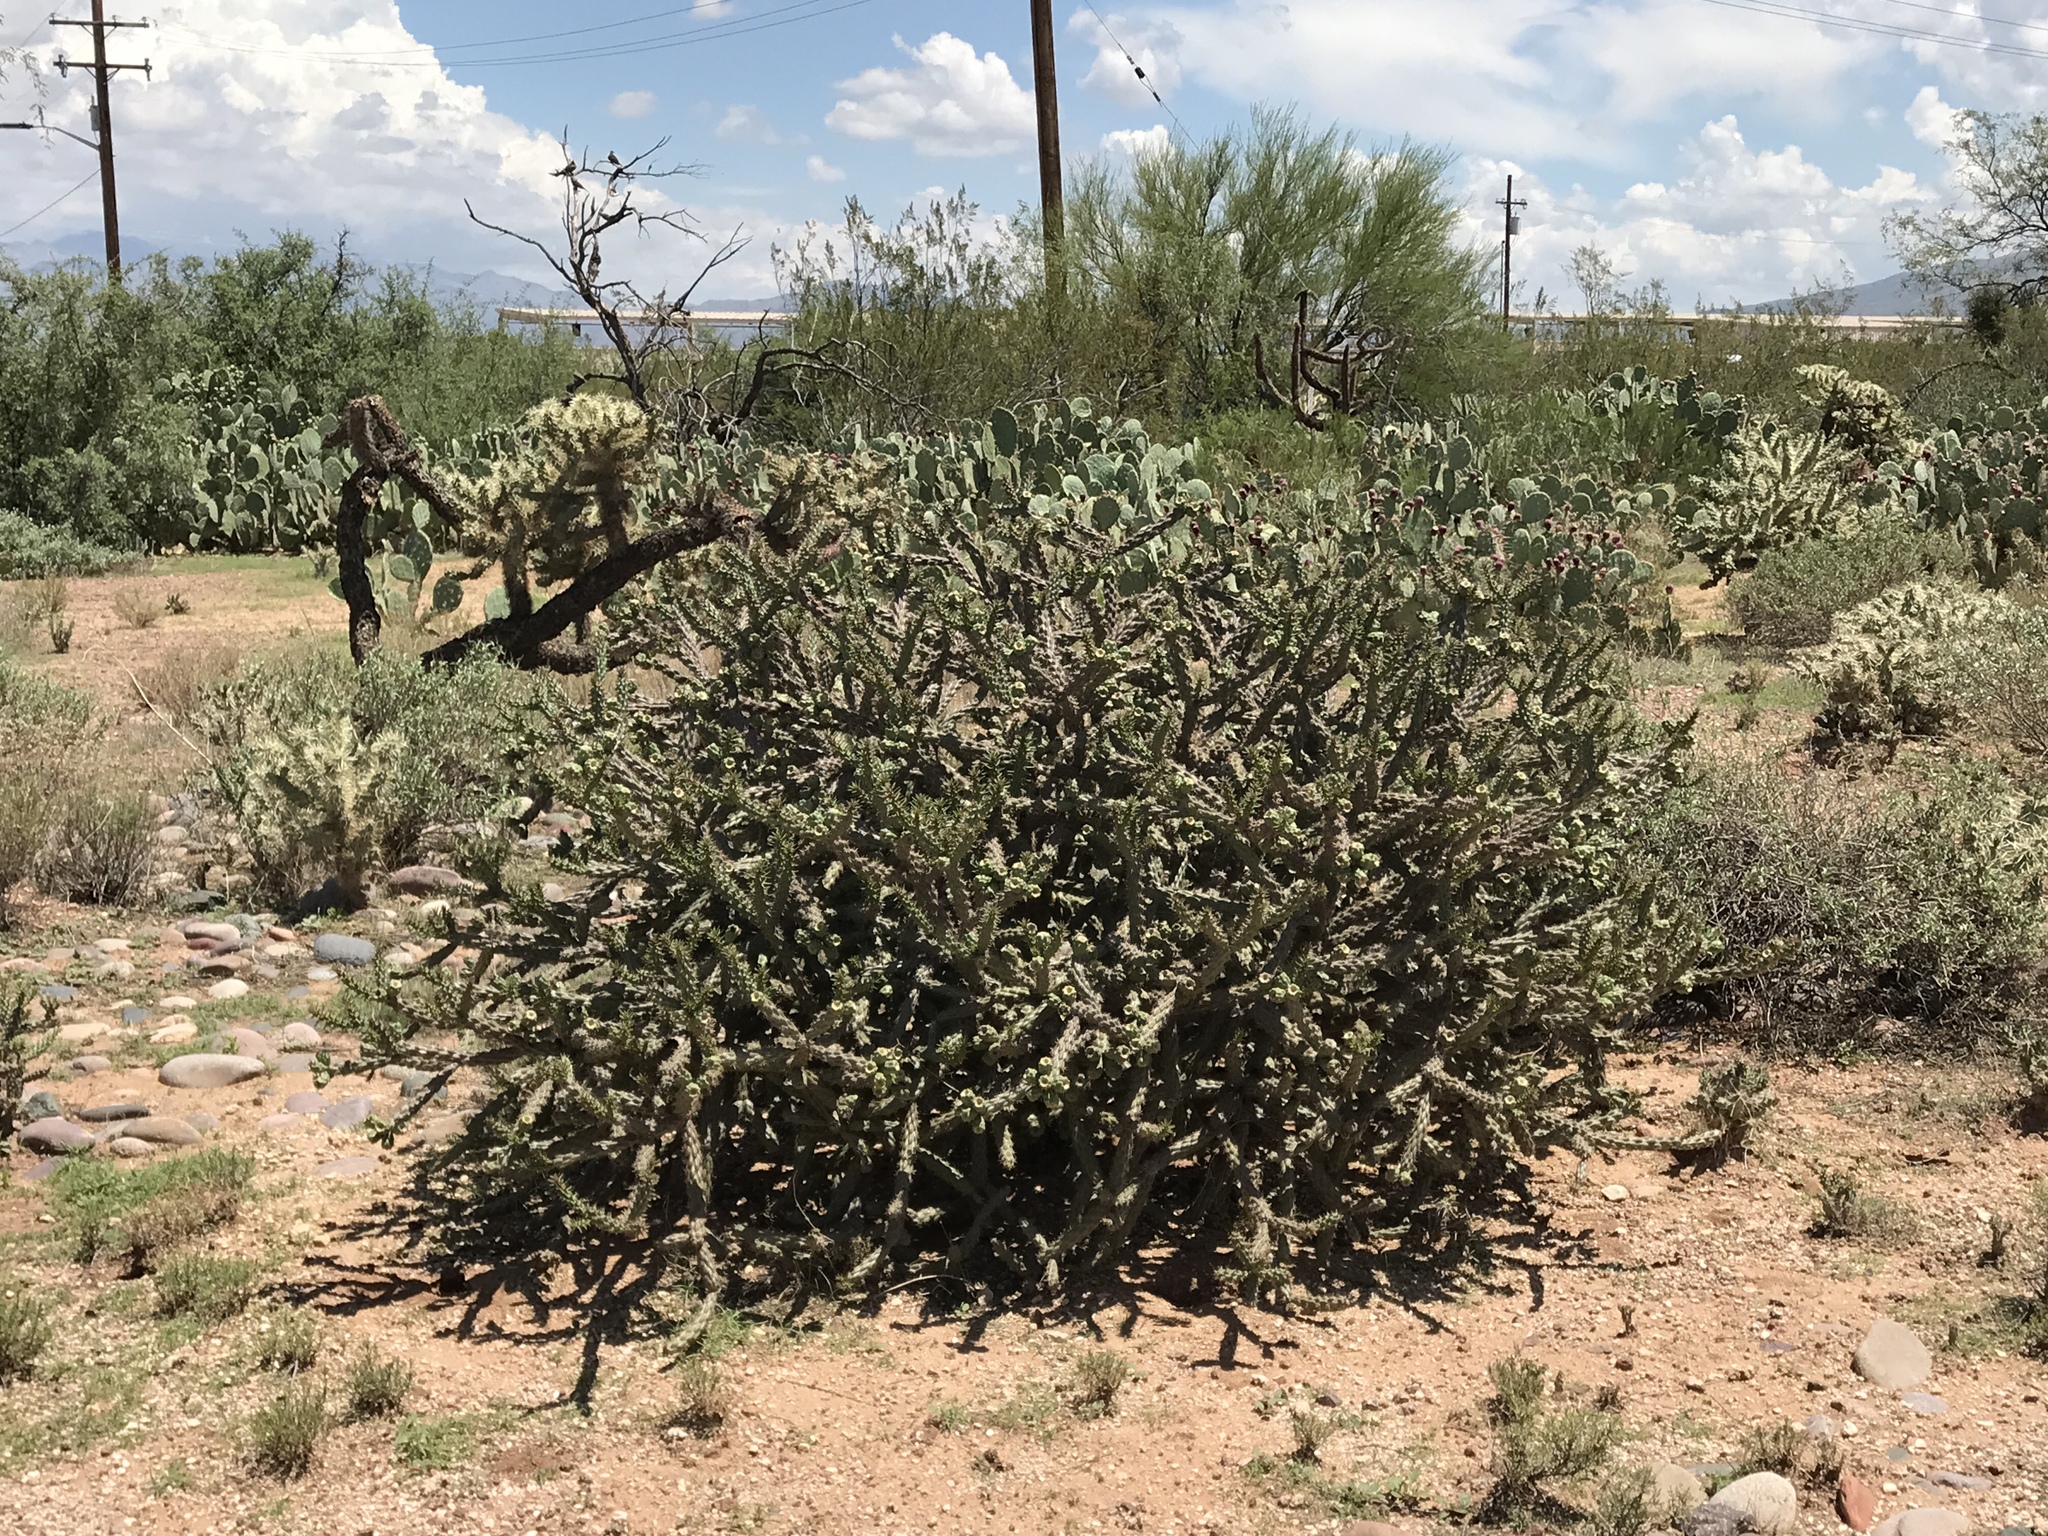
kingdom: Plantae
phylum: Tracheophyta
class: Magnoliopsida
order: Caryophyllales
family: Cactaceae
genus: Cylindropuntia
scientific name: Cylindropuntia thurberi
